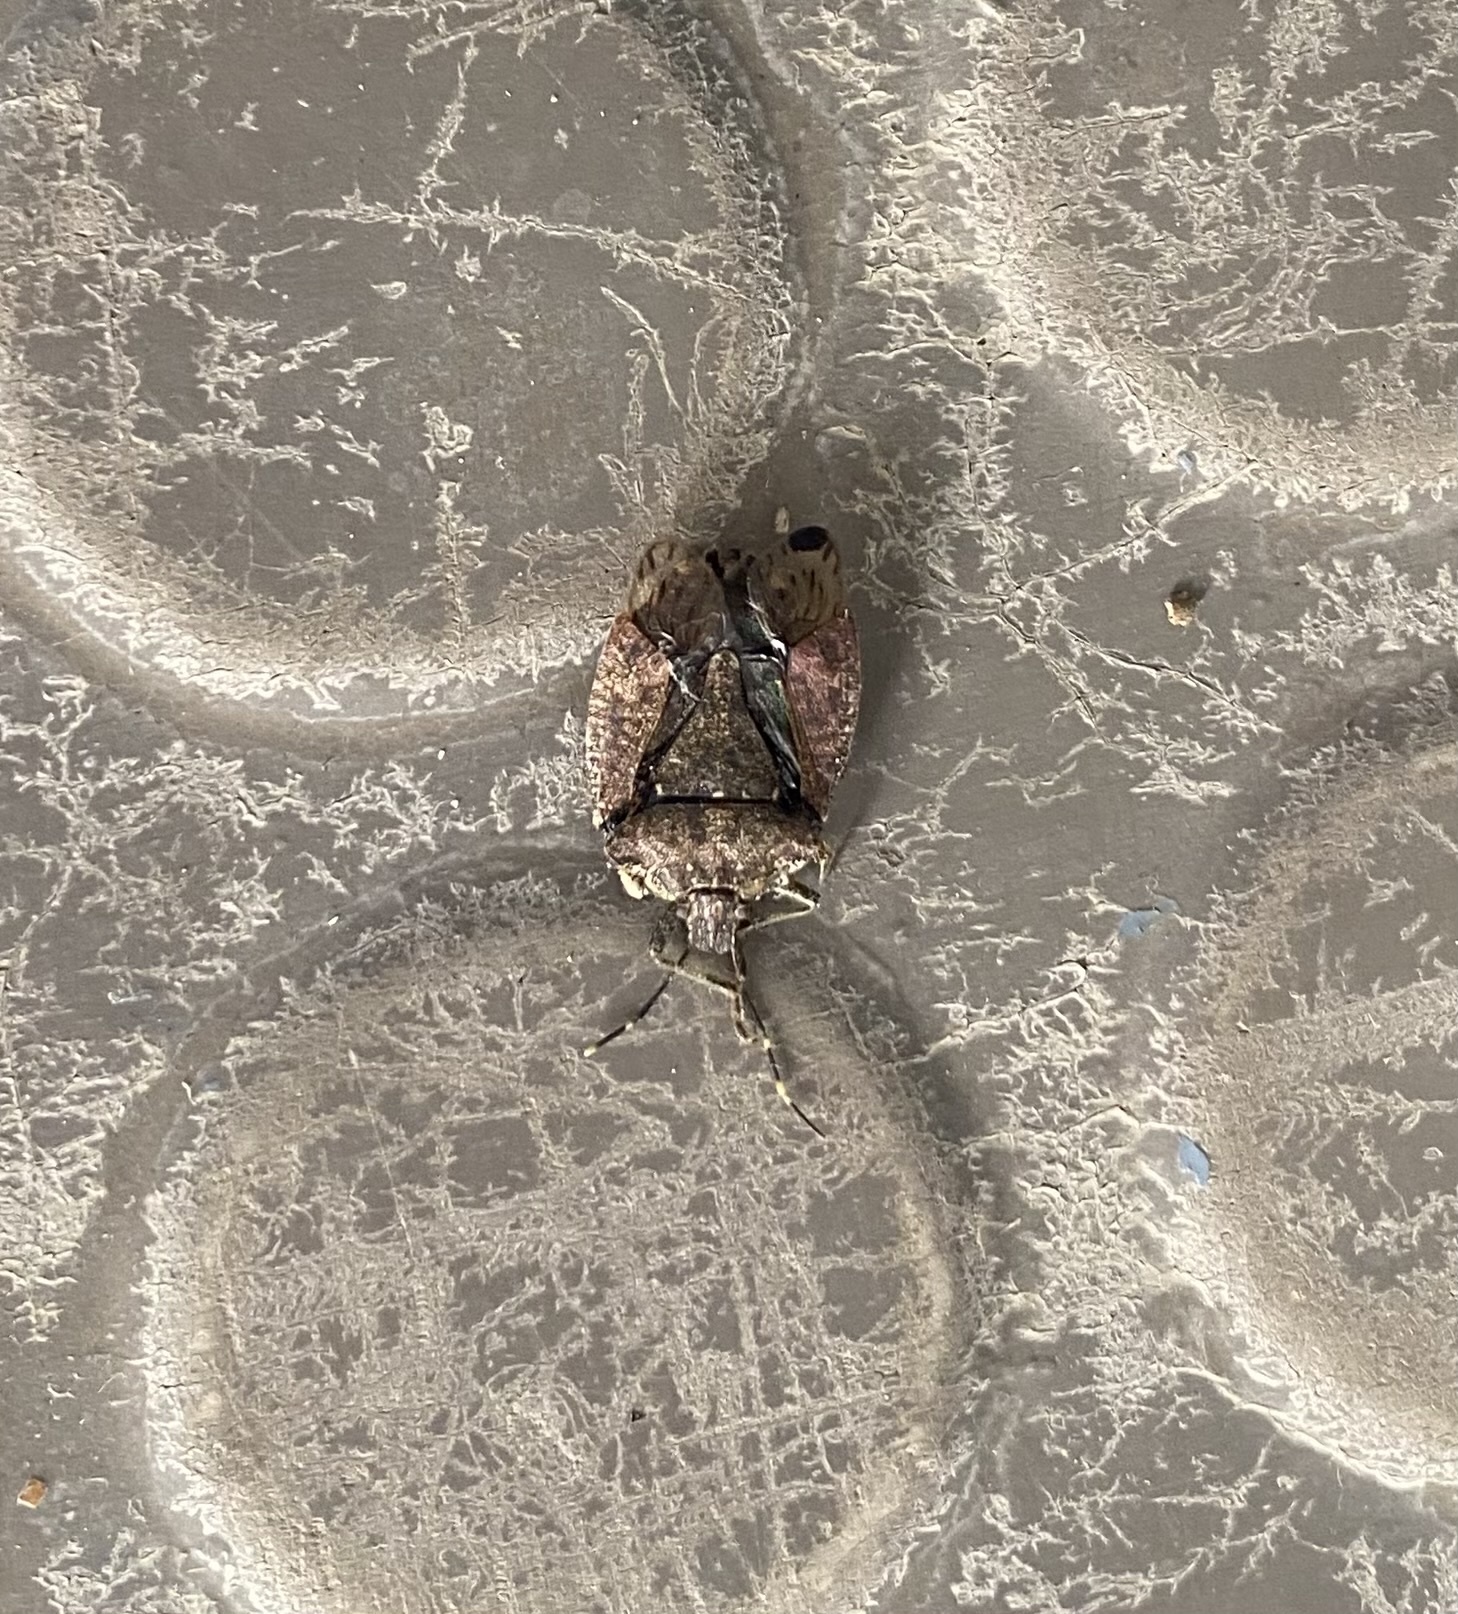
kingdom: Animalia
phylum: Arthropoda
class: Insecta
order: Hemiptera
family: Pentatomidae
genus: Halyomorpha
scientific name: Halyomorpha halys
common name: Brown marmorated stink bug
